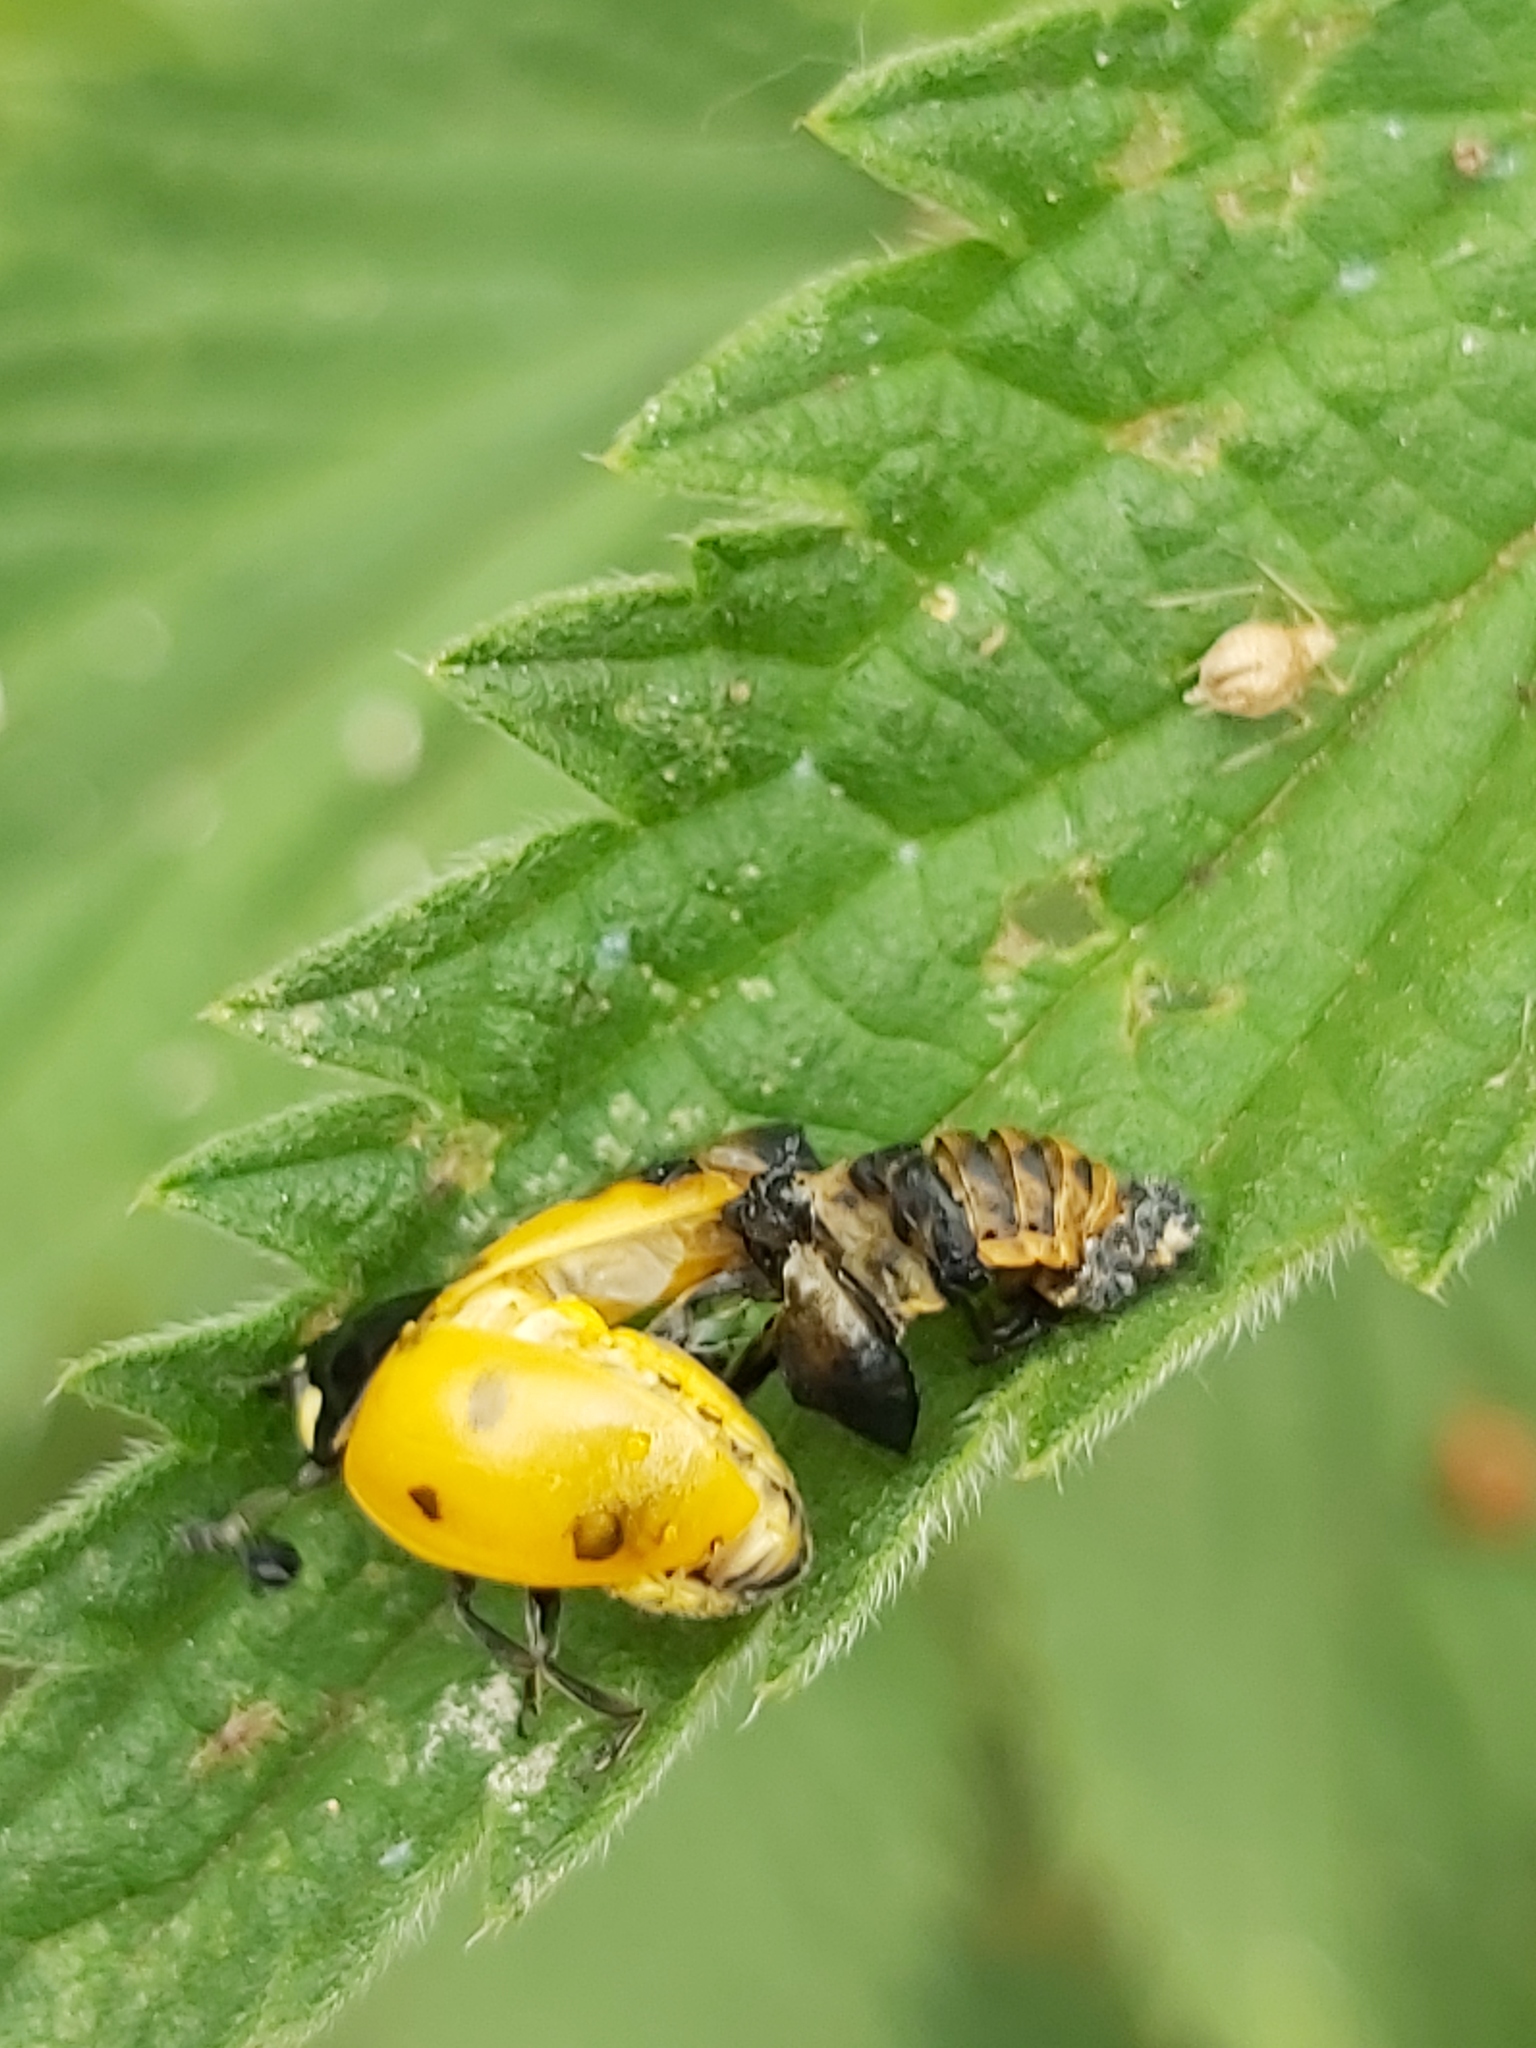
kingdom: Animalia
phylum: Arthropoda
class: Insecta
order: Coleoptera
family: Coccinellidae
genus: Coccinella
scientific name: Coccinella septempunctata
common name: Sevenspotted lady beetle
